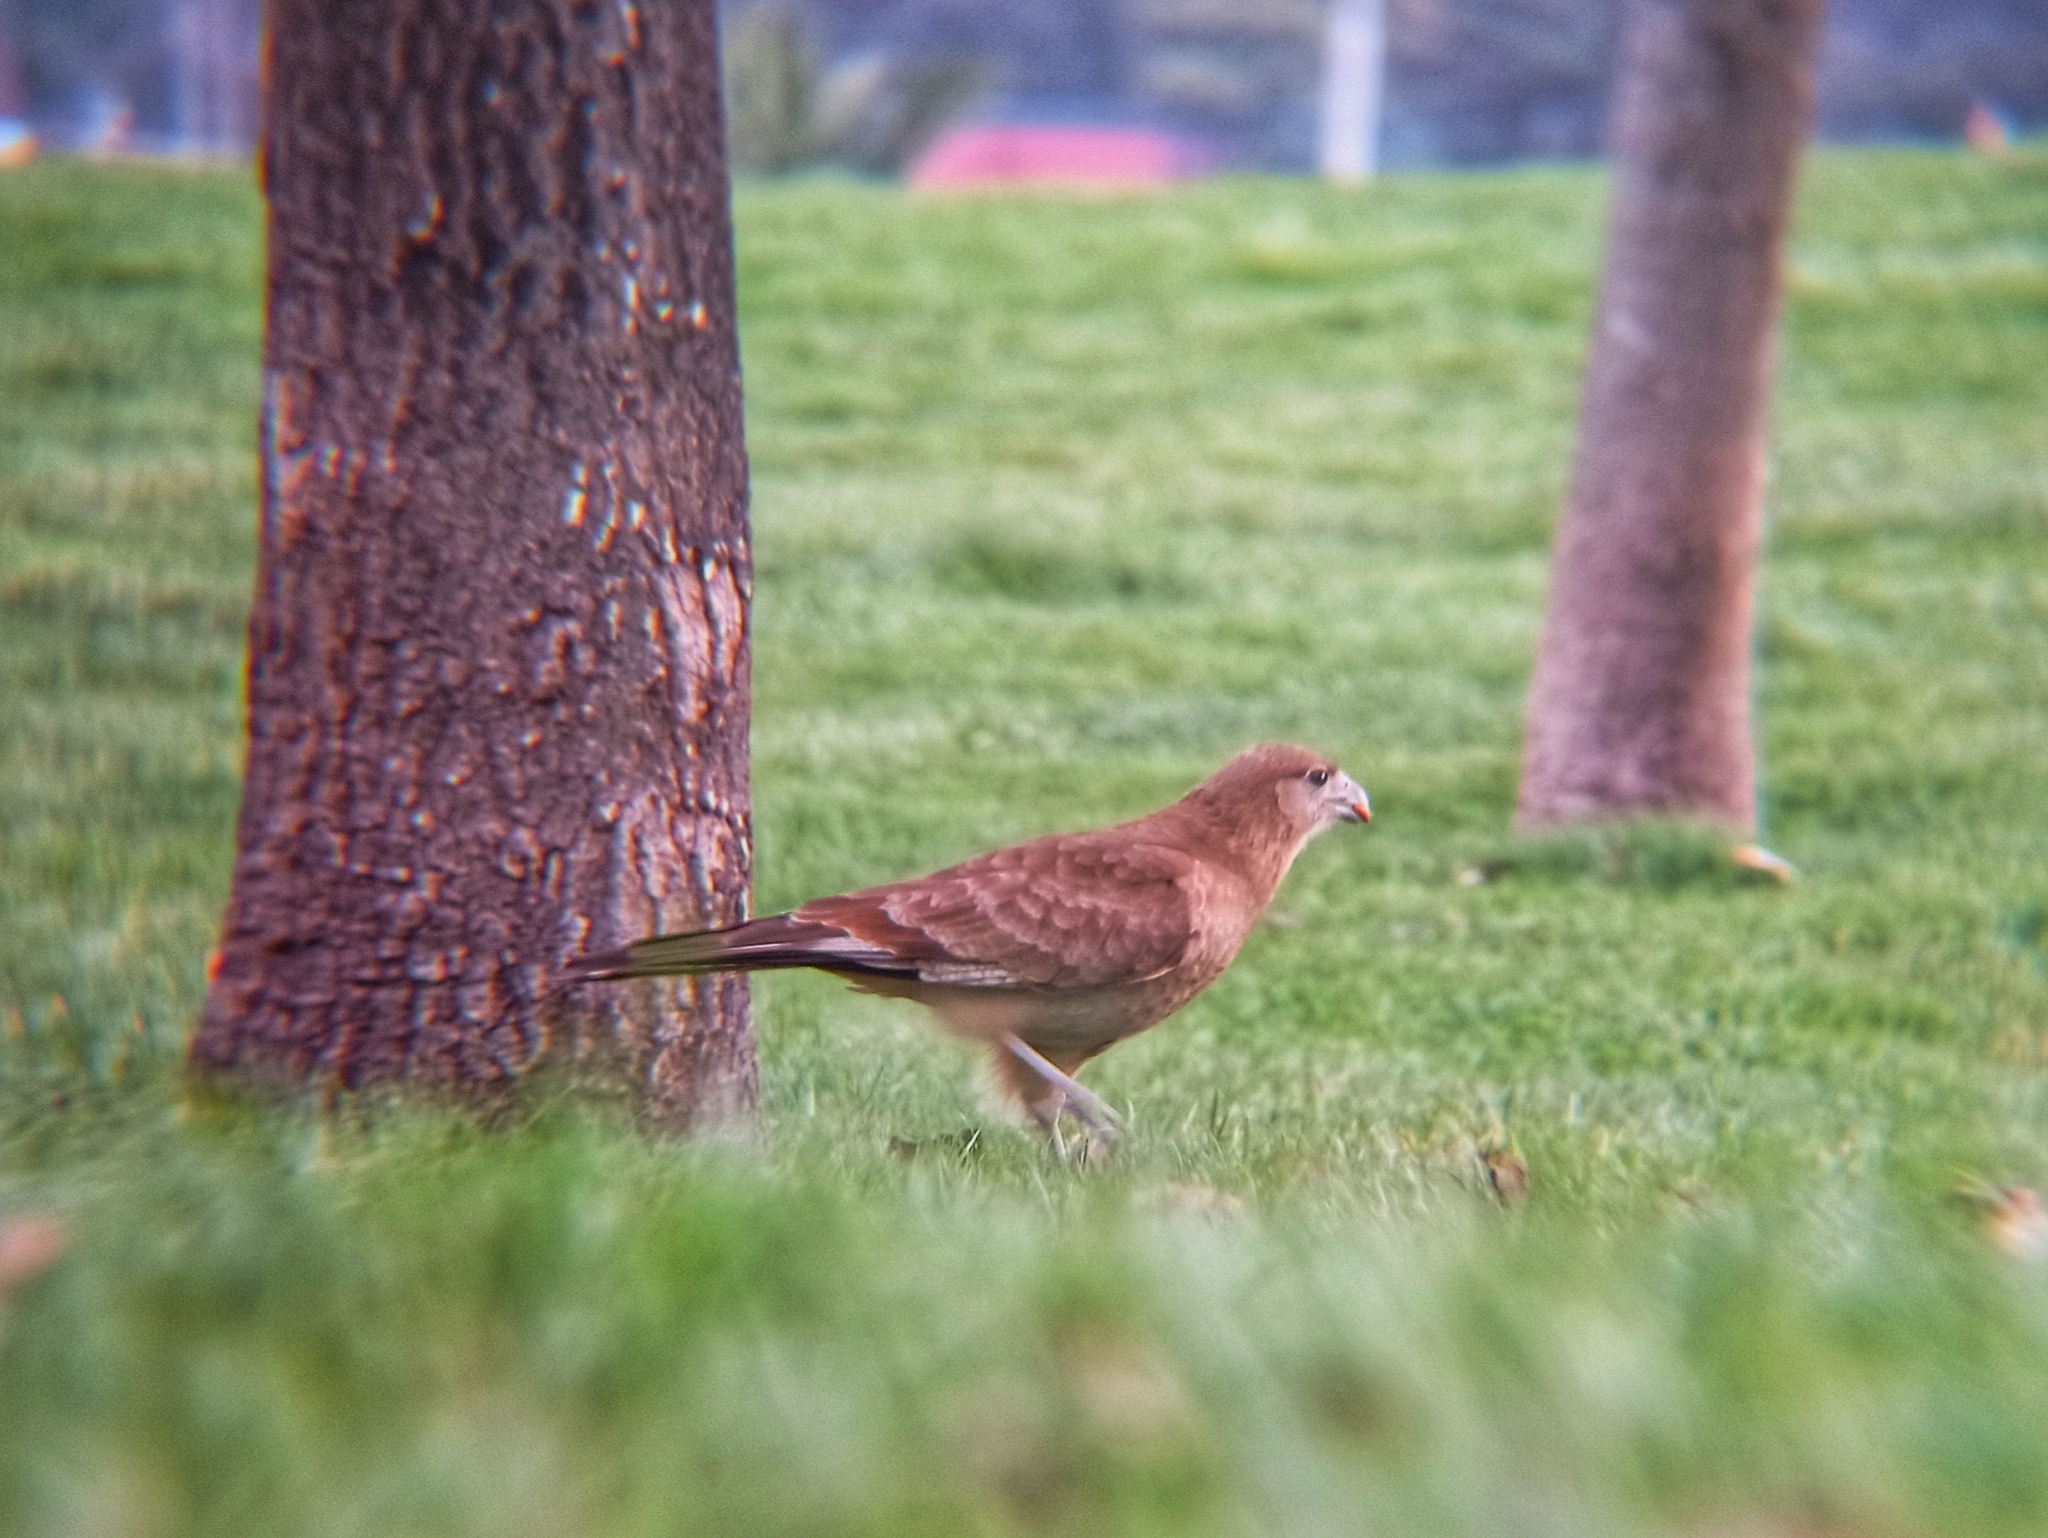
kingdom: Animalia
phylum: Chordata
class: Aves
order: Falconiformes
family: Falconidae
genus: Daptrius
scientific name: Daptrius
